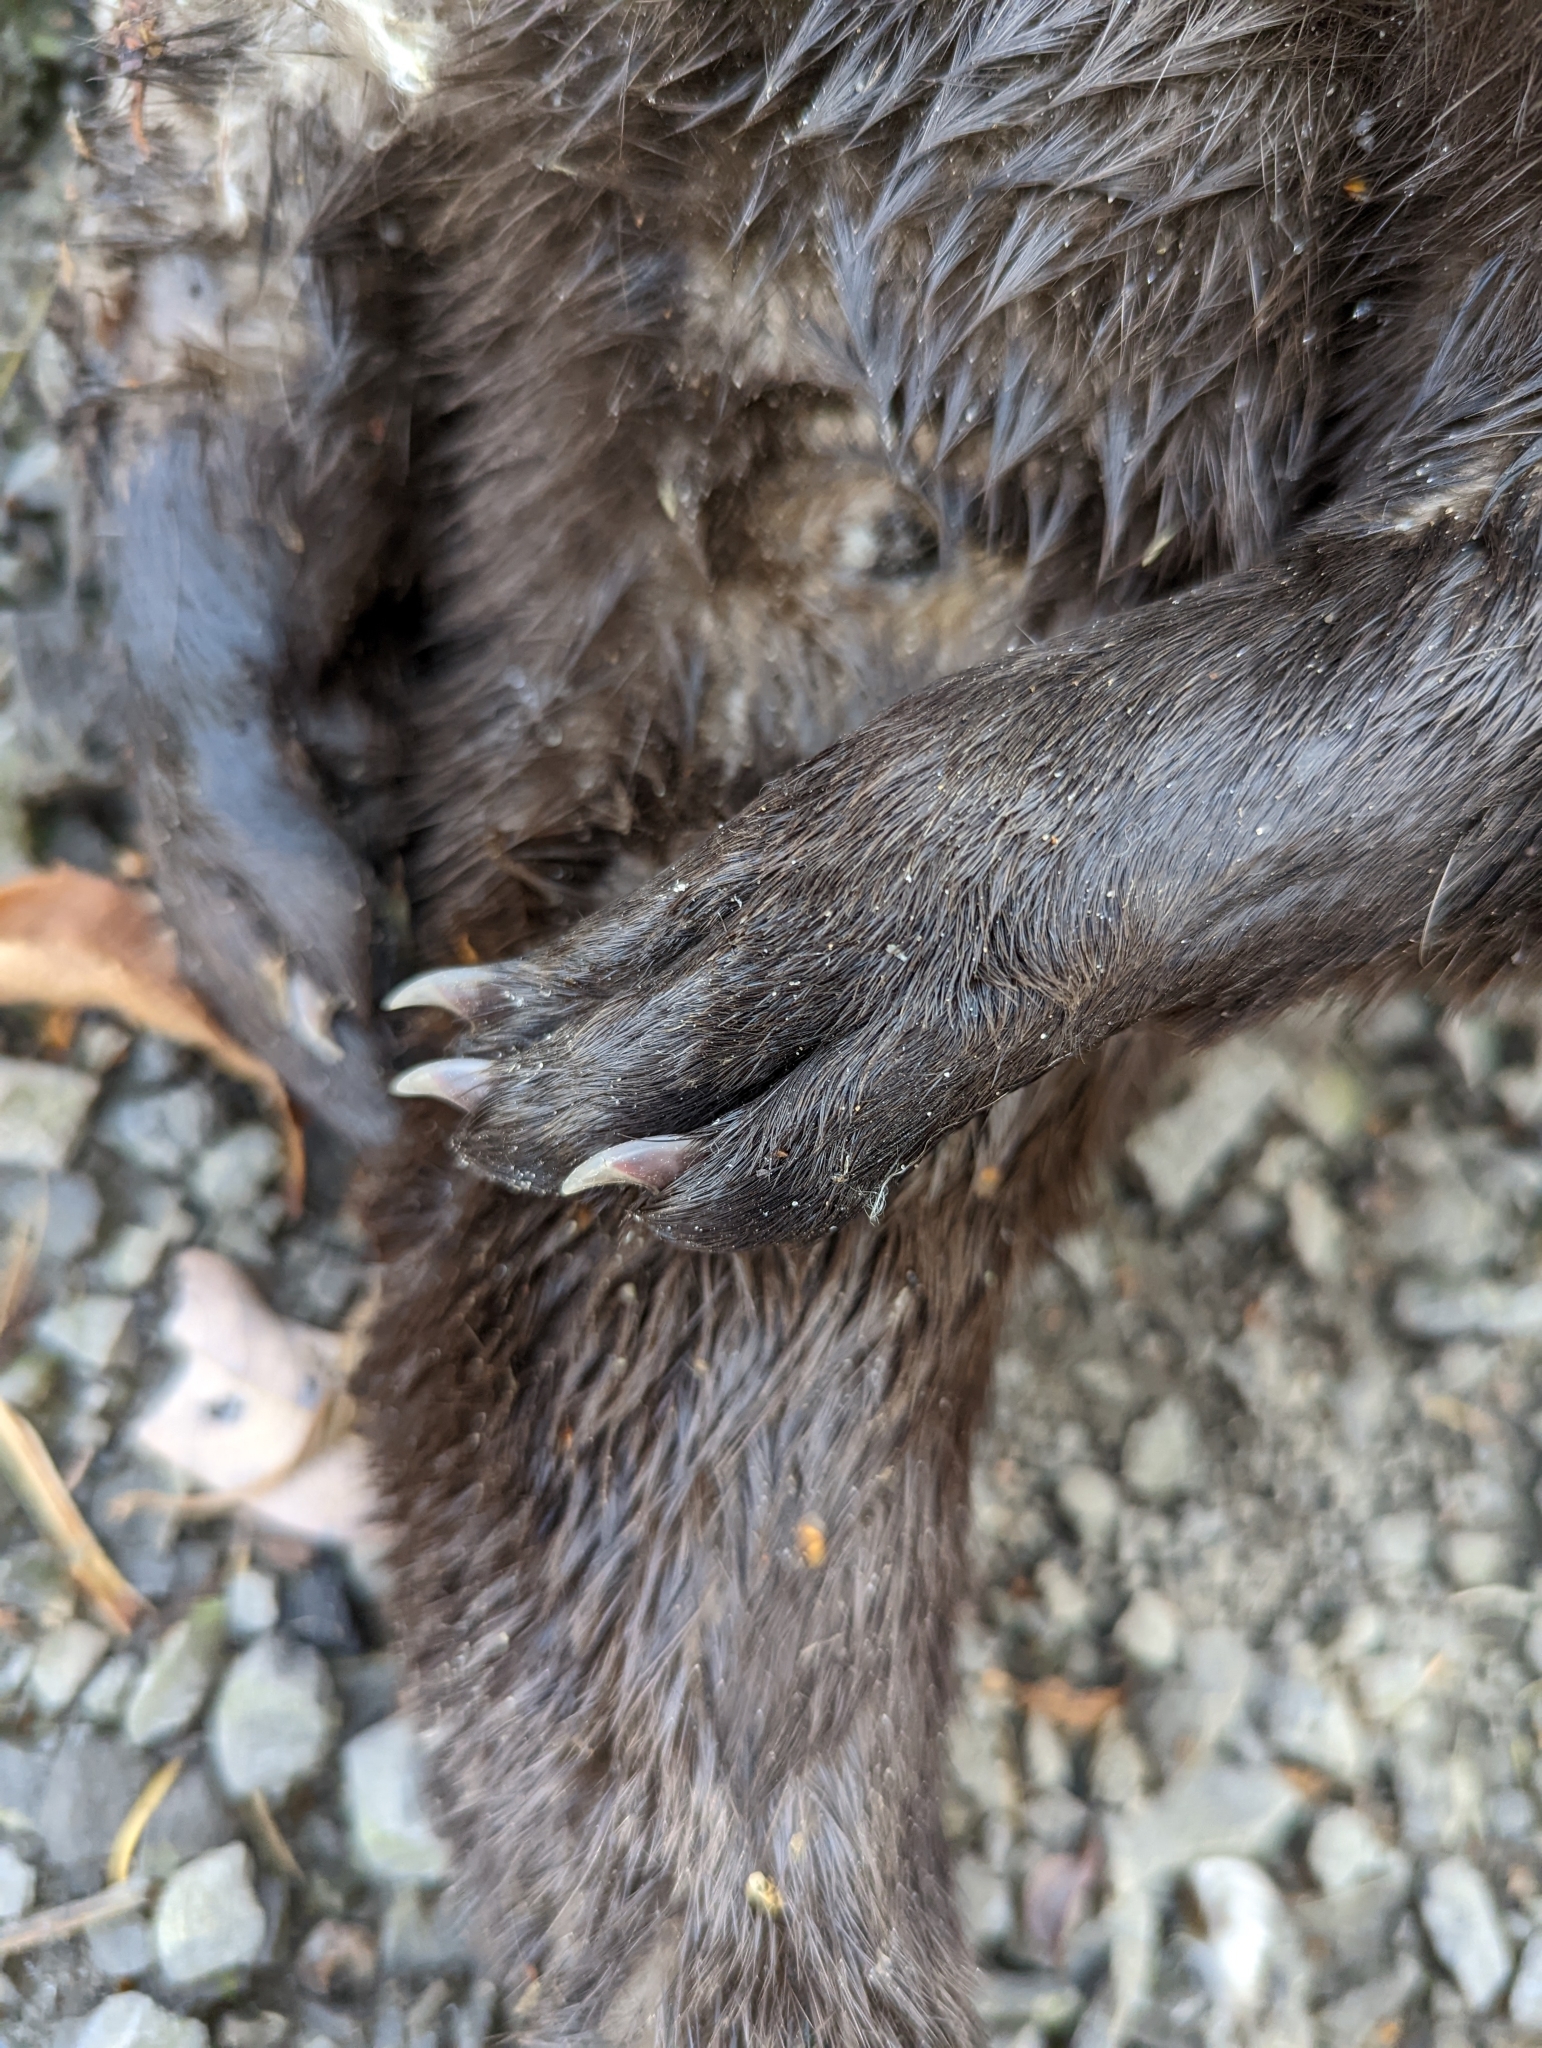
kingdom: Animalia
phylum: Chordata
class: Mammalia
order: Carnivora
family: Mustelidae
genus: Lontra
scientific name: Lontra canadensis
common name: North american river otter
